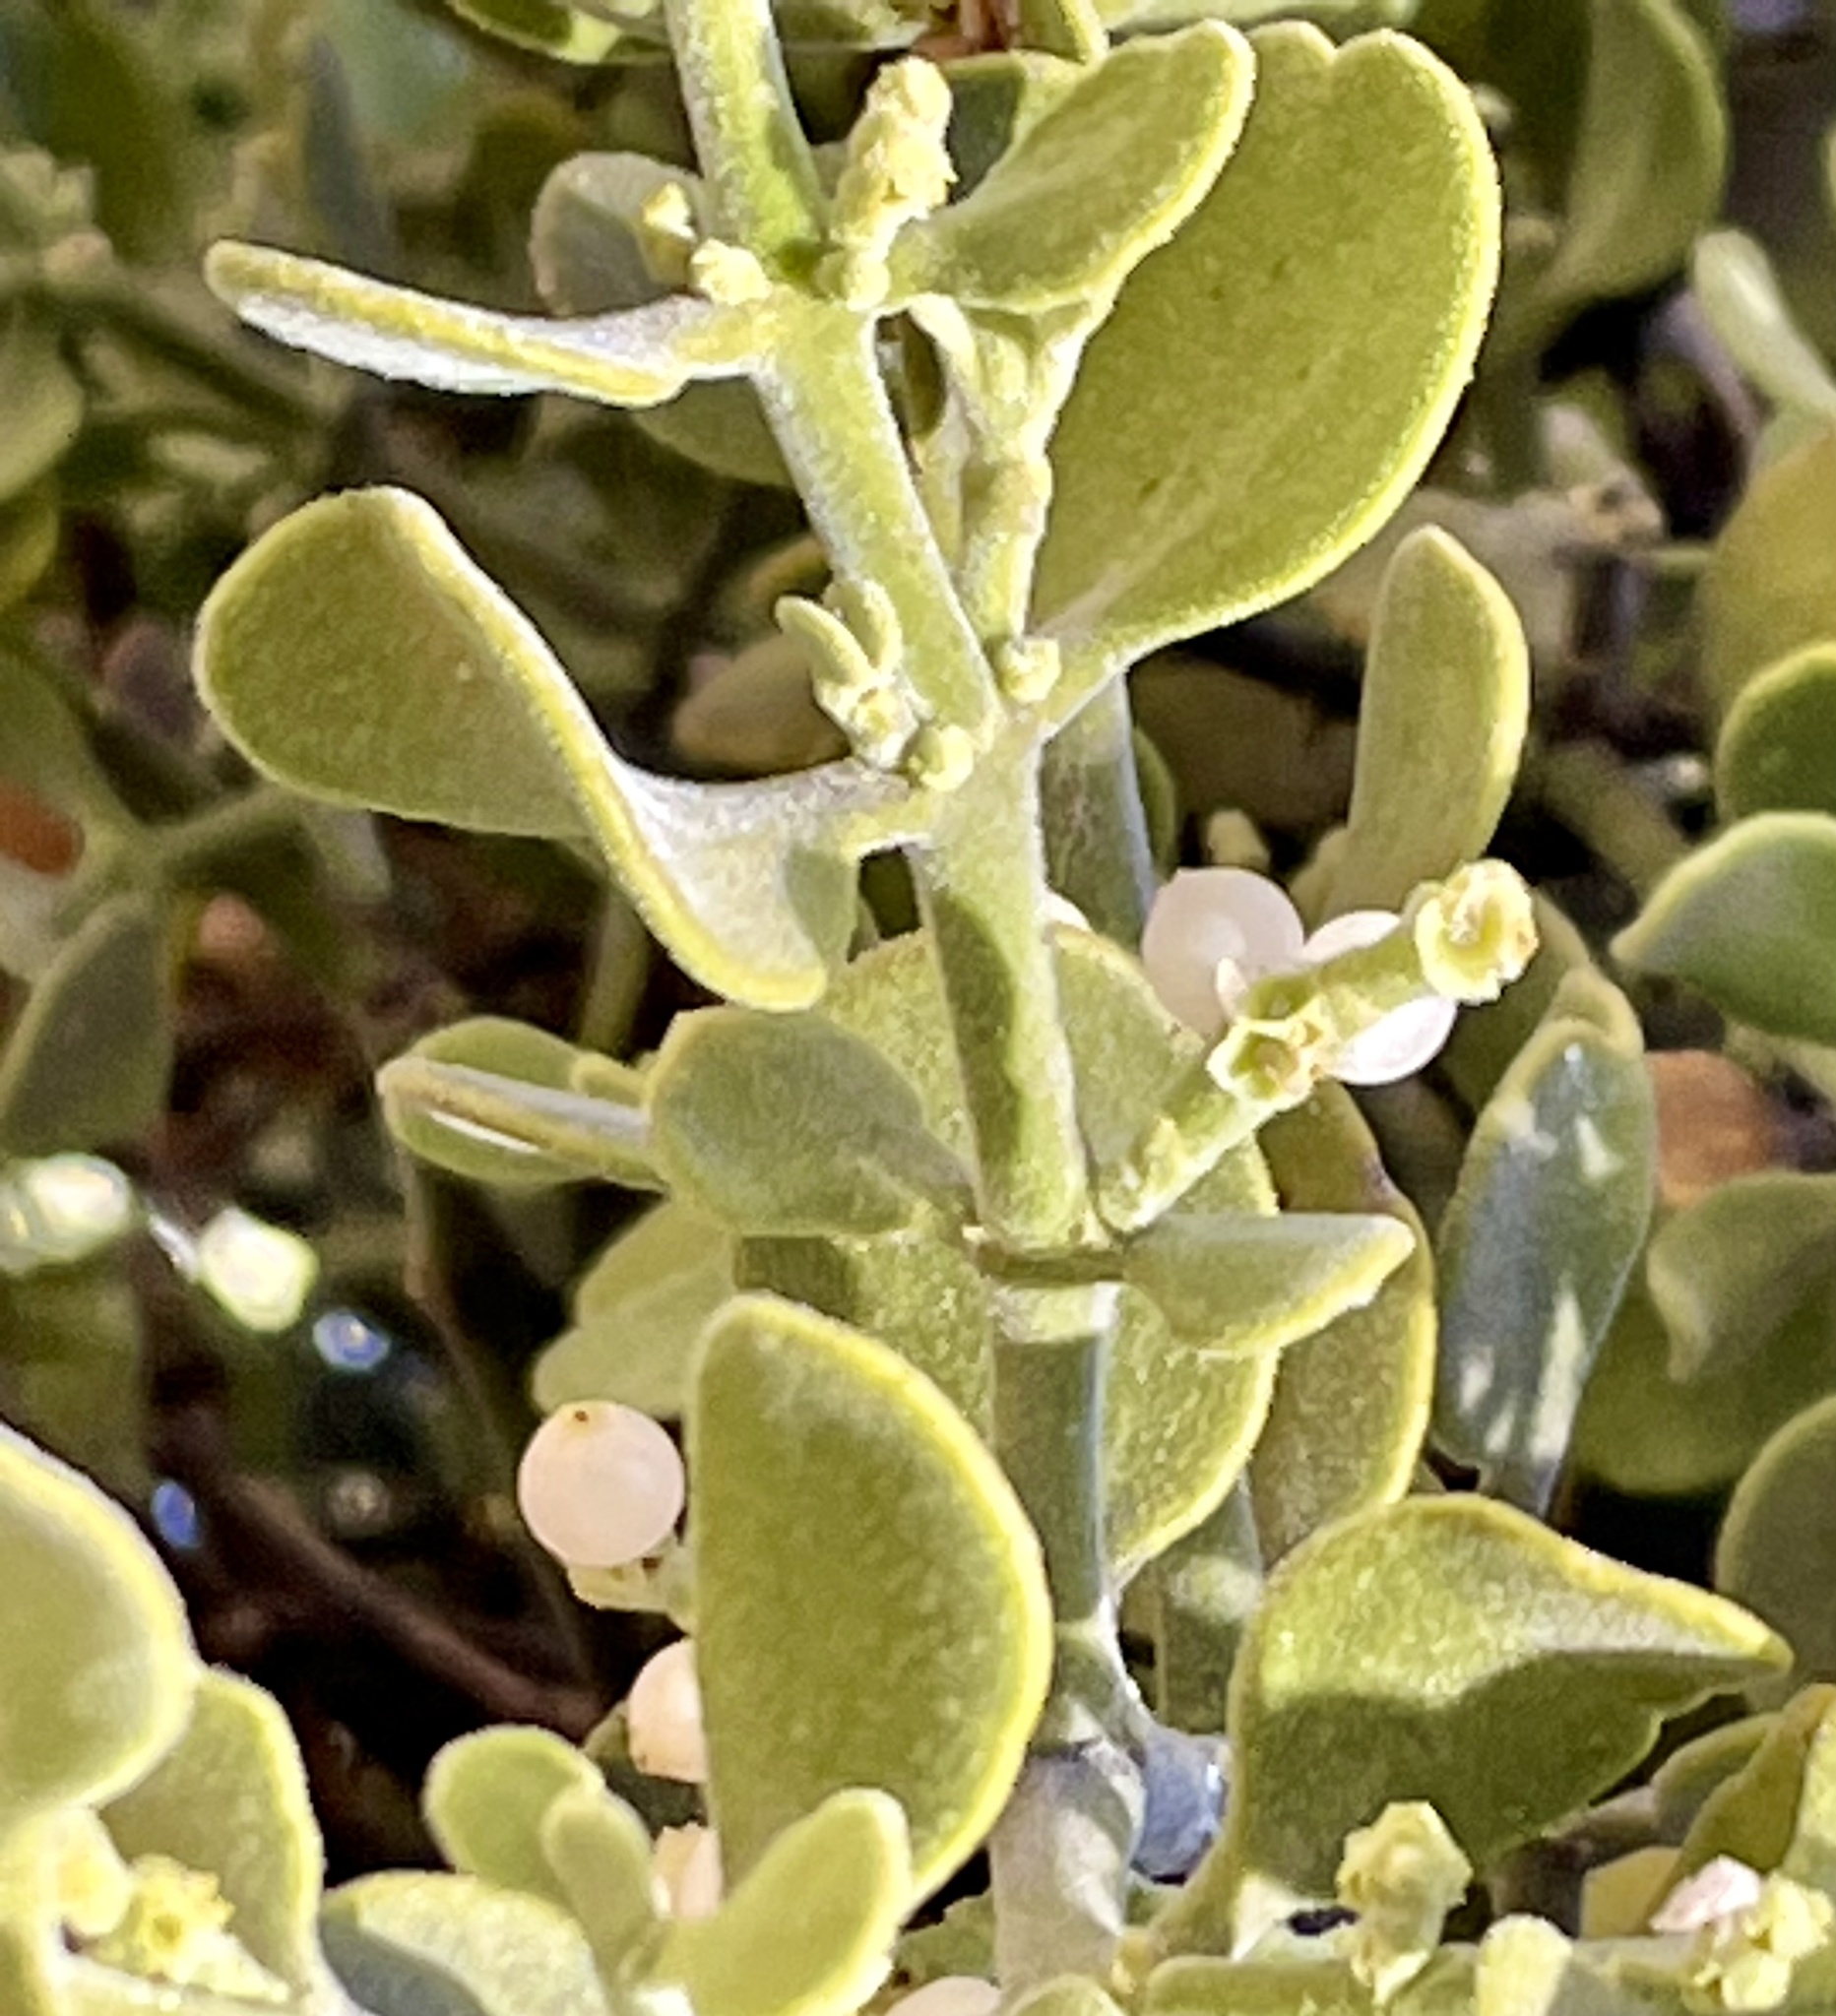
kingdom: Plantae
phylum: Tracheophyta
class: Magnoliopsida
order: Santalales
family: Viscaceae
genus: Phoradendron
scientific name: Phoradendron leucarpum
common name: Pacific mistletoe
